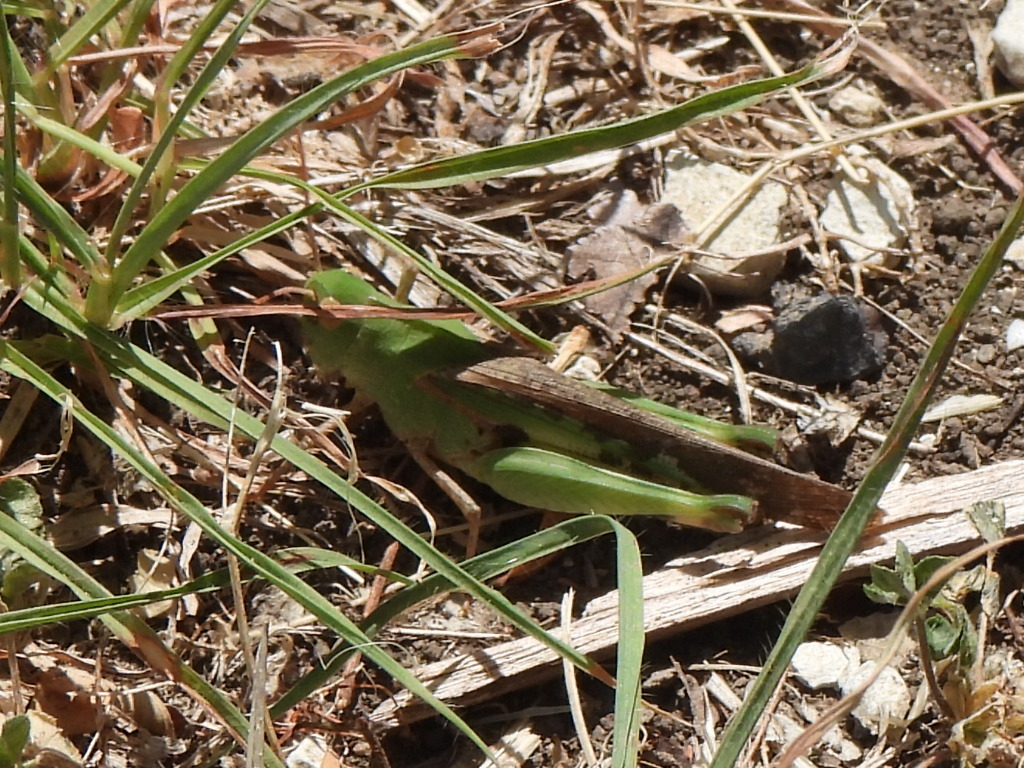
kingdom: Animalia
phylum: Arthropoda
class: Insecta
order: Orthoptera
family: Acrididae
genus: Chortophaga
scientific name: Chortophaga viridifasciata
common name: Green-striped grasshopper
